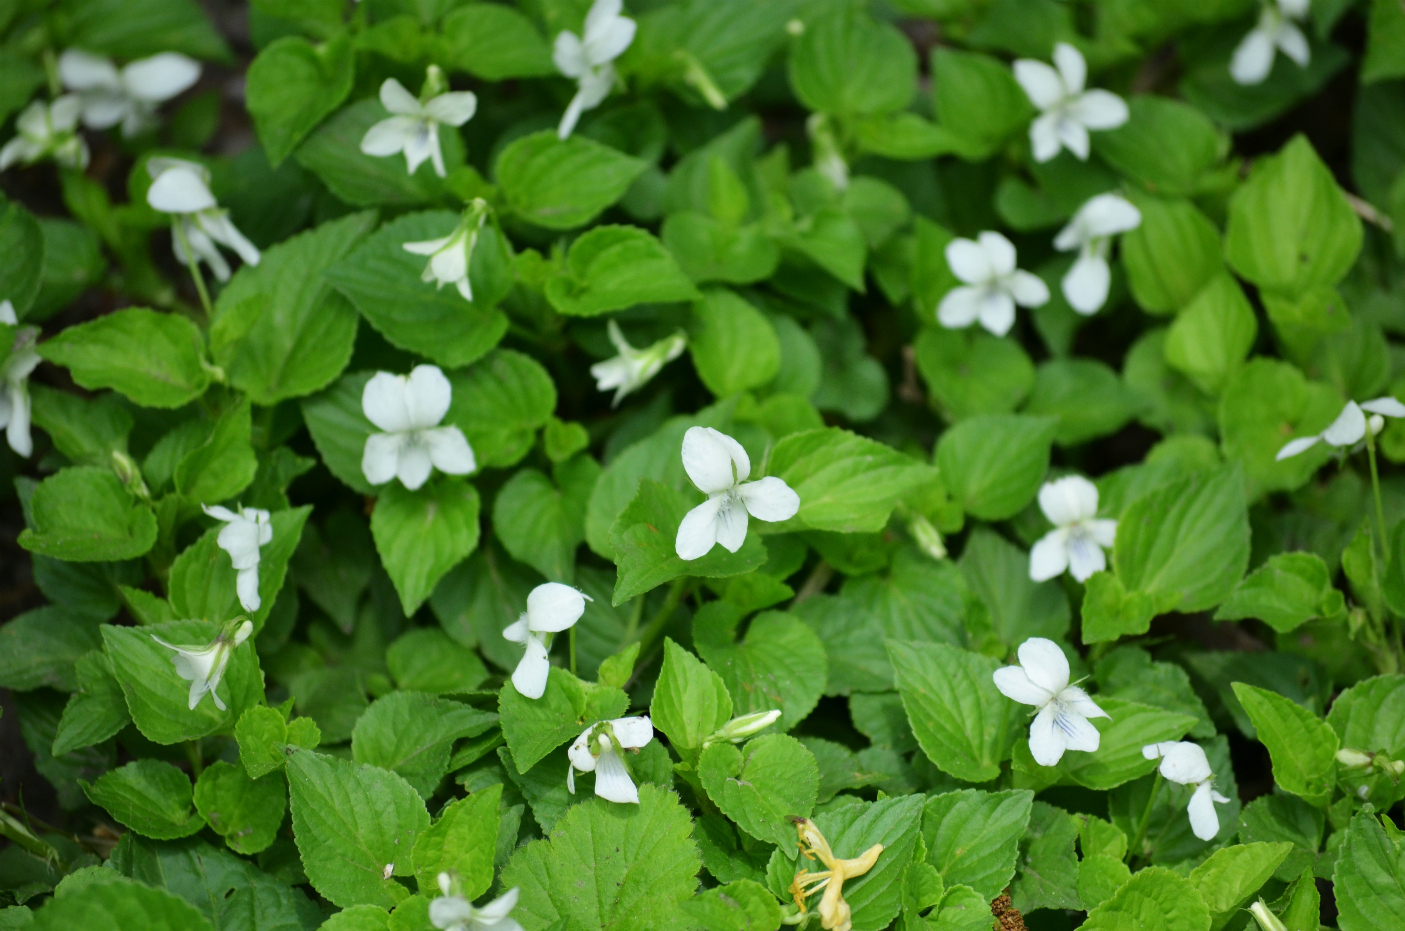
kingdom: Plantae
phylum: Tracheophyta
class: Magnoliopsida
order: Malpighiales
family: Violaceae
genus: Viola
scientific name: Viola striata
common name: Cream violet
